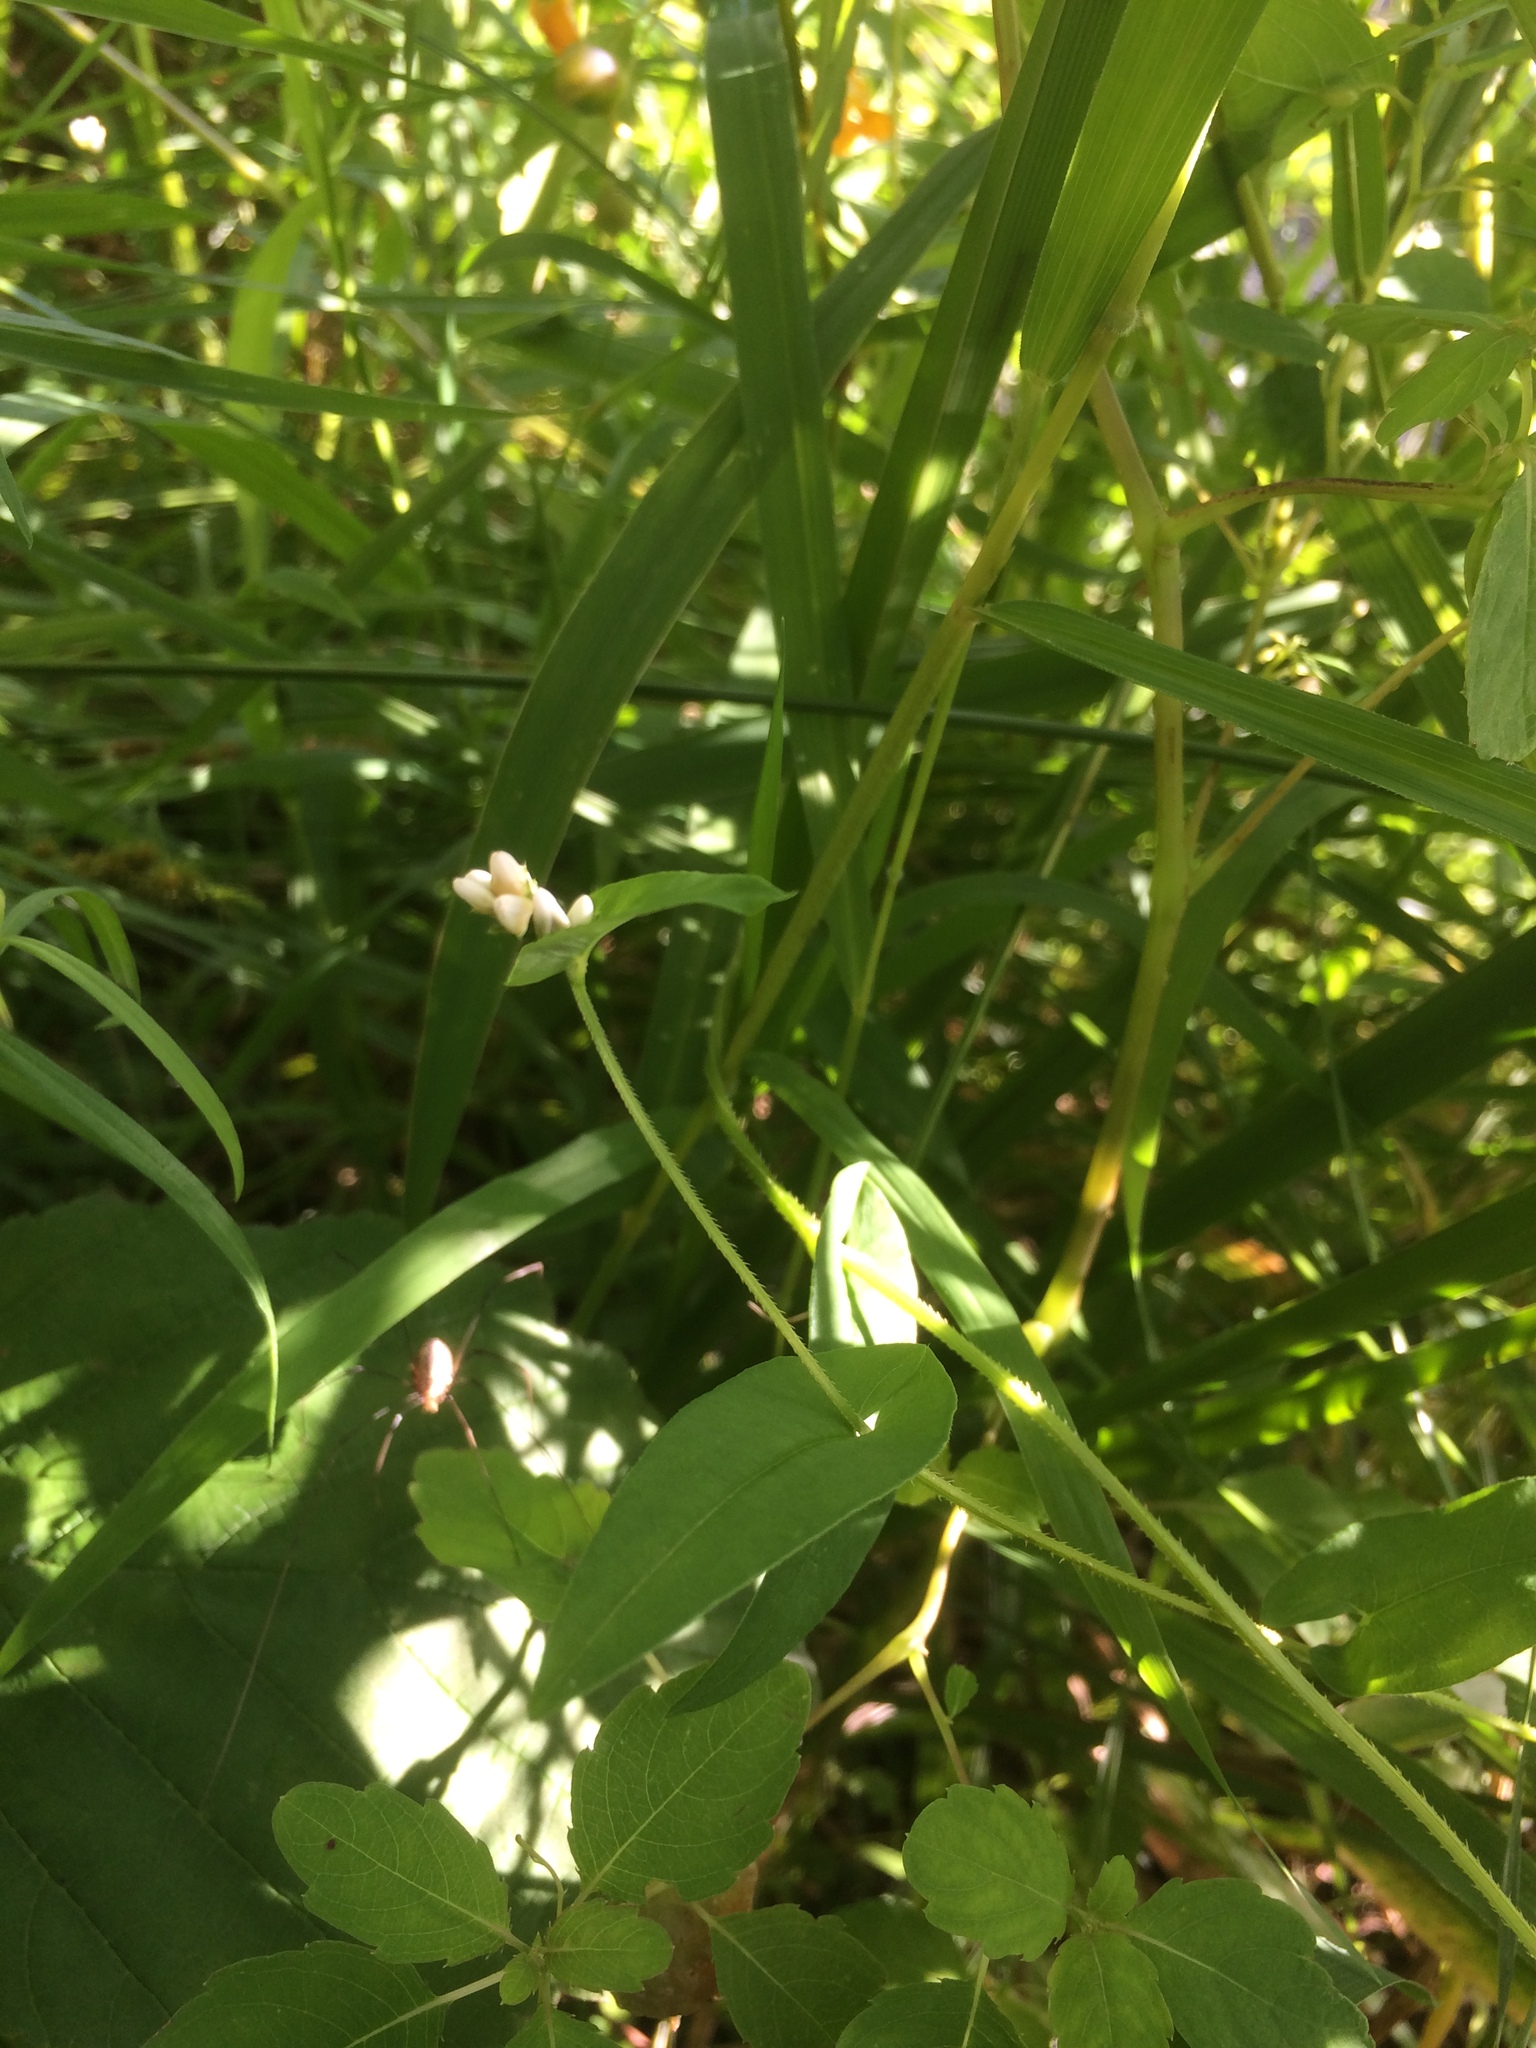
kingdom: Plantae
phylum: Tracheophyta
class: Magnoliopsida
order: Caryophyllales
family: Polygonaceae
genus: Persicaria
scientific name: Persicaria sagittata
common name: American tearthumb
